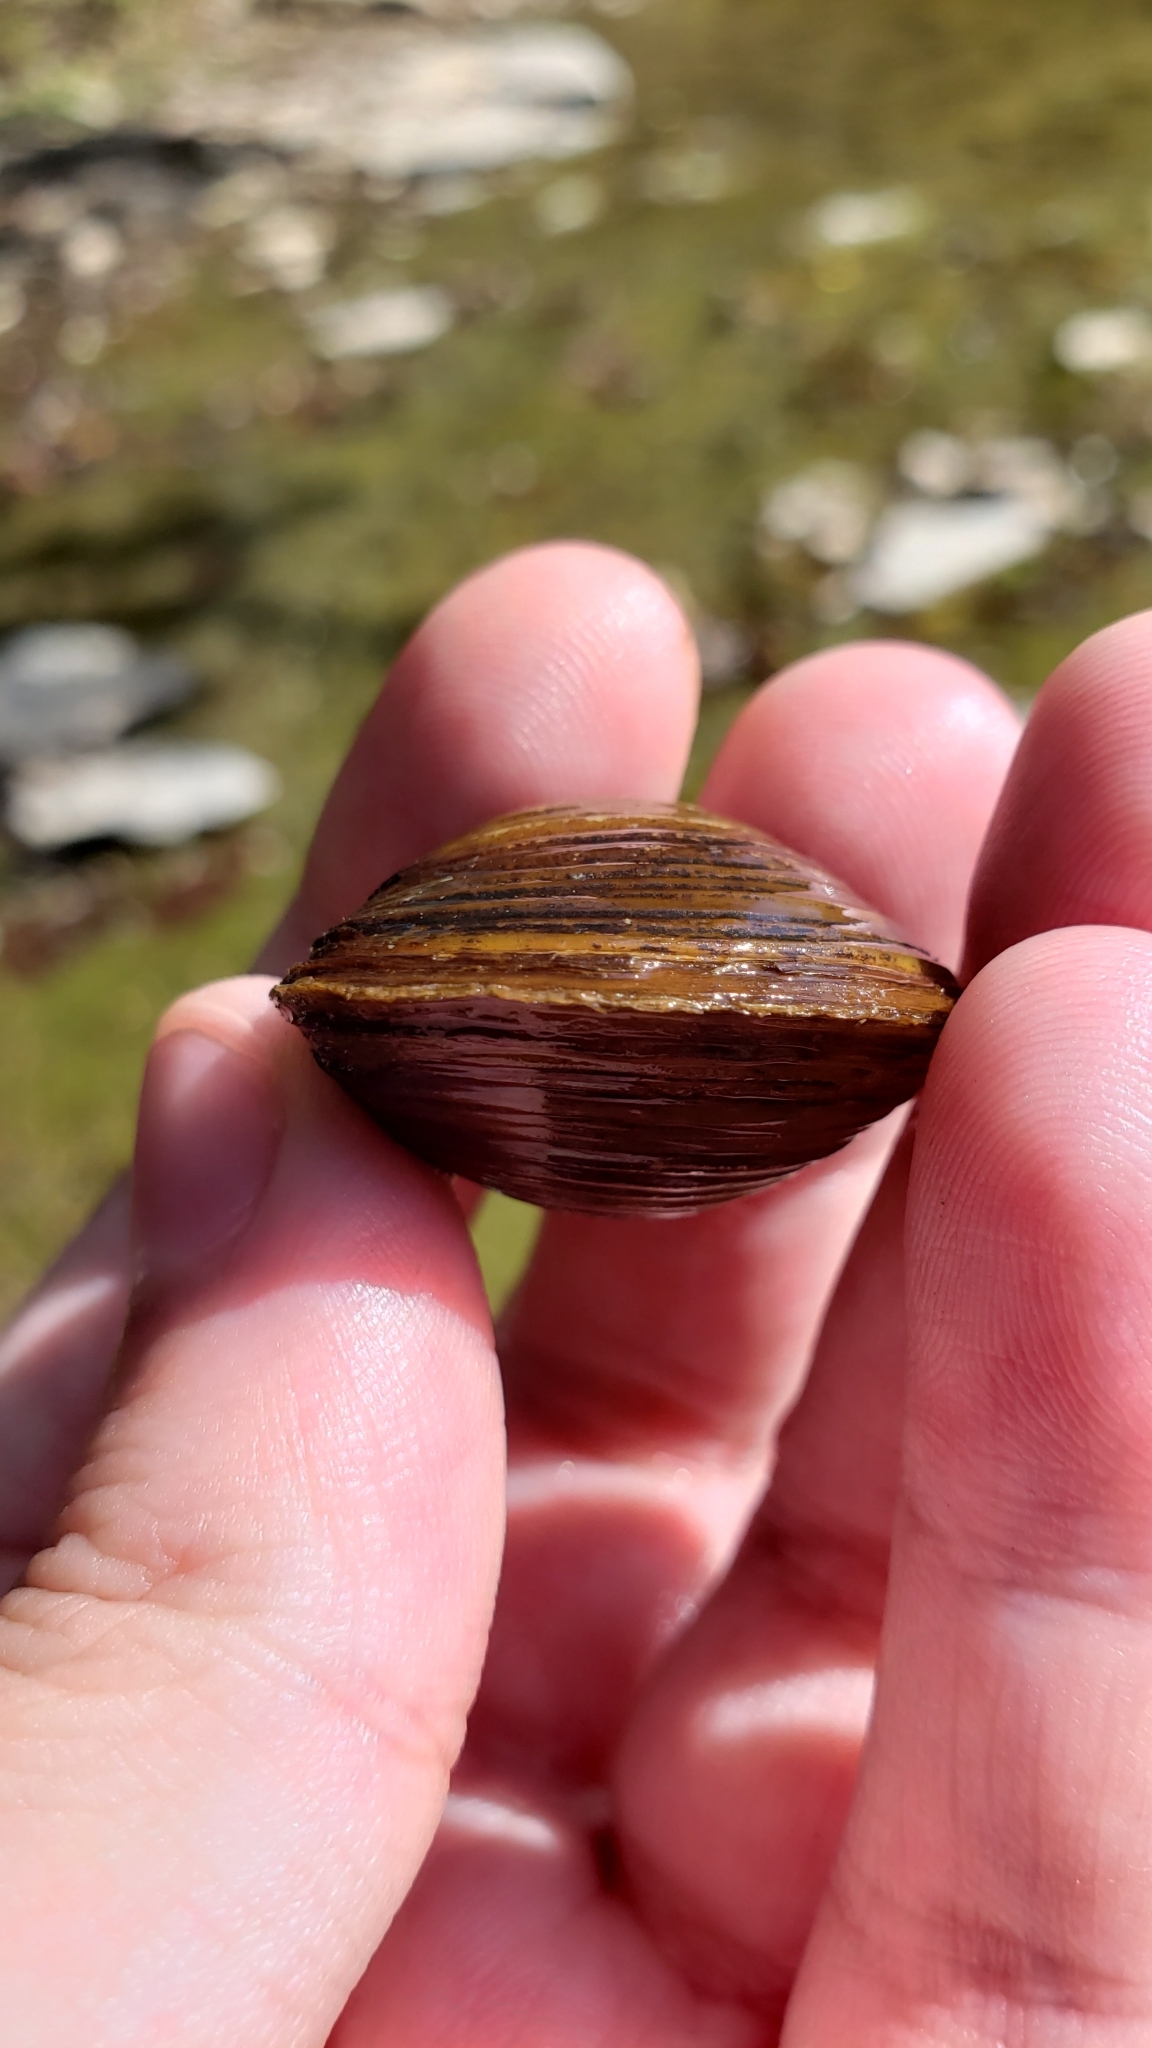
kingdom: Animalia
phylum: Mollusca
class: Bivalvia
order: Venerida
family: Cyrenidae
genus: Corbicula
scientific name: Corbicula fluminea
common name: Asian clam
